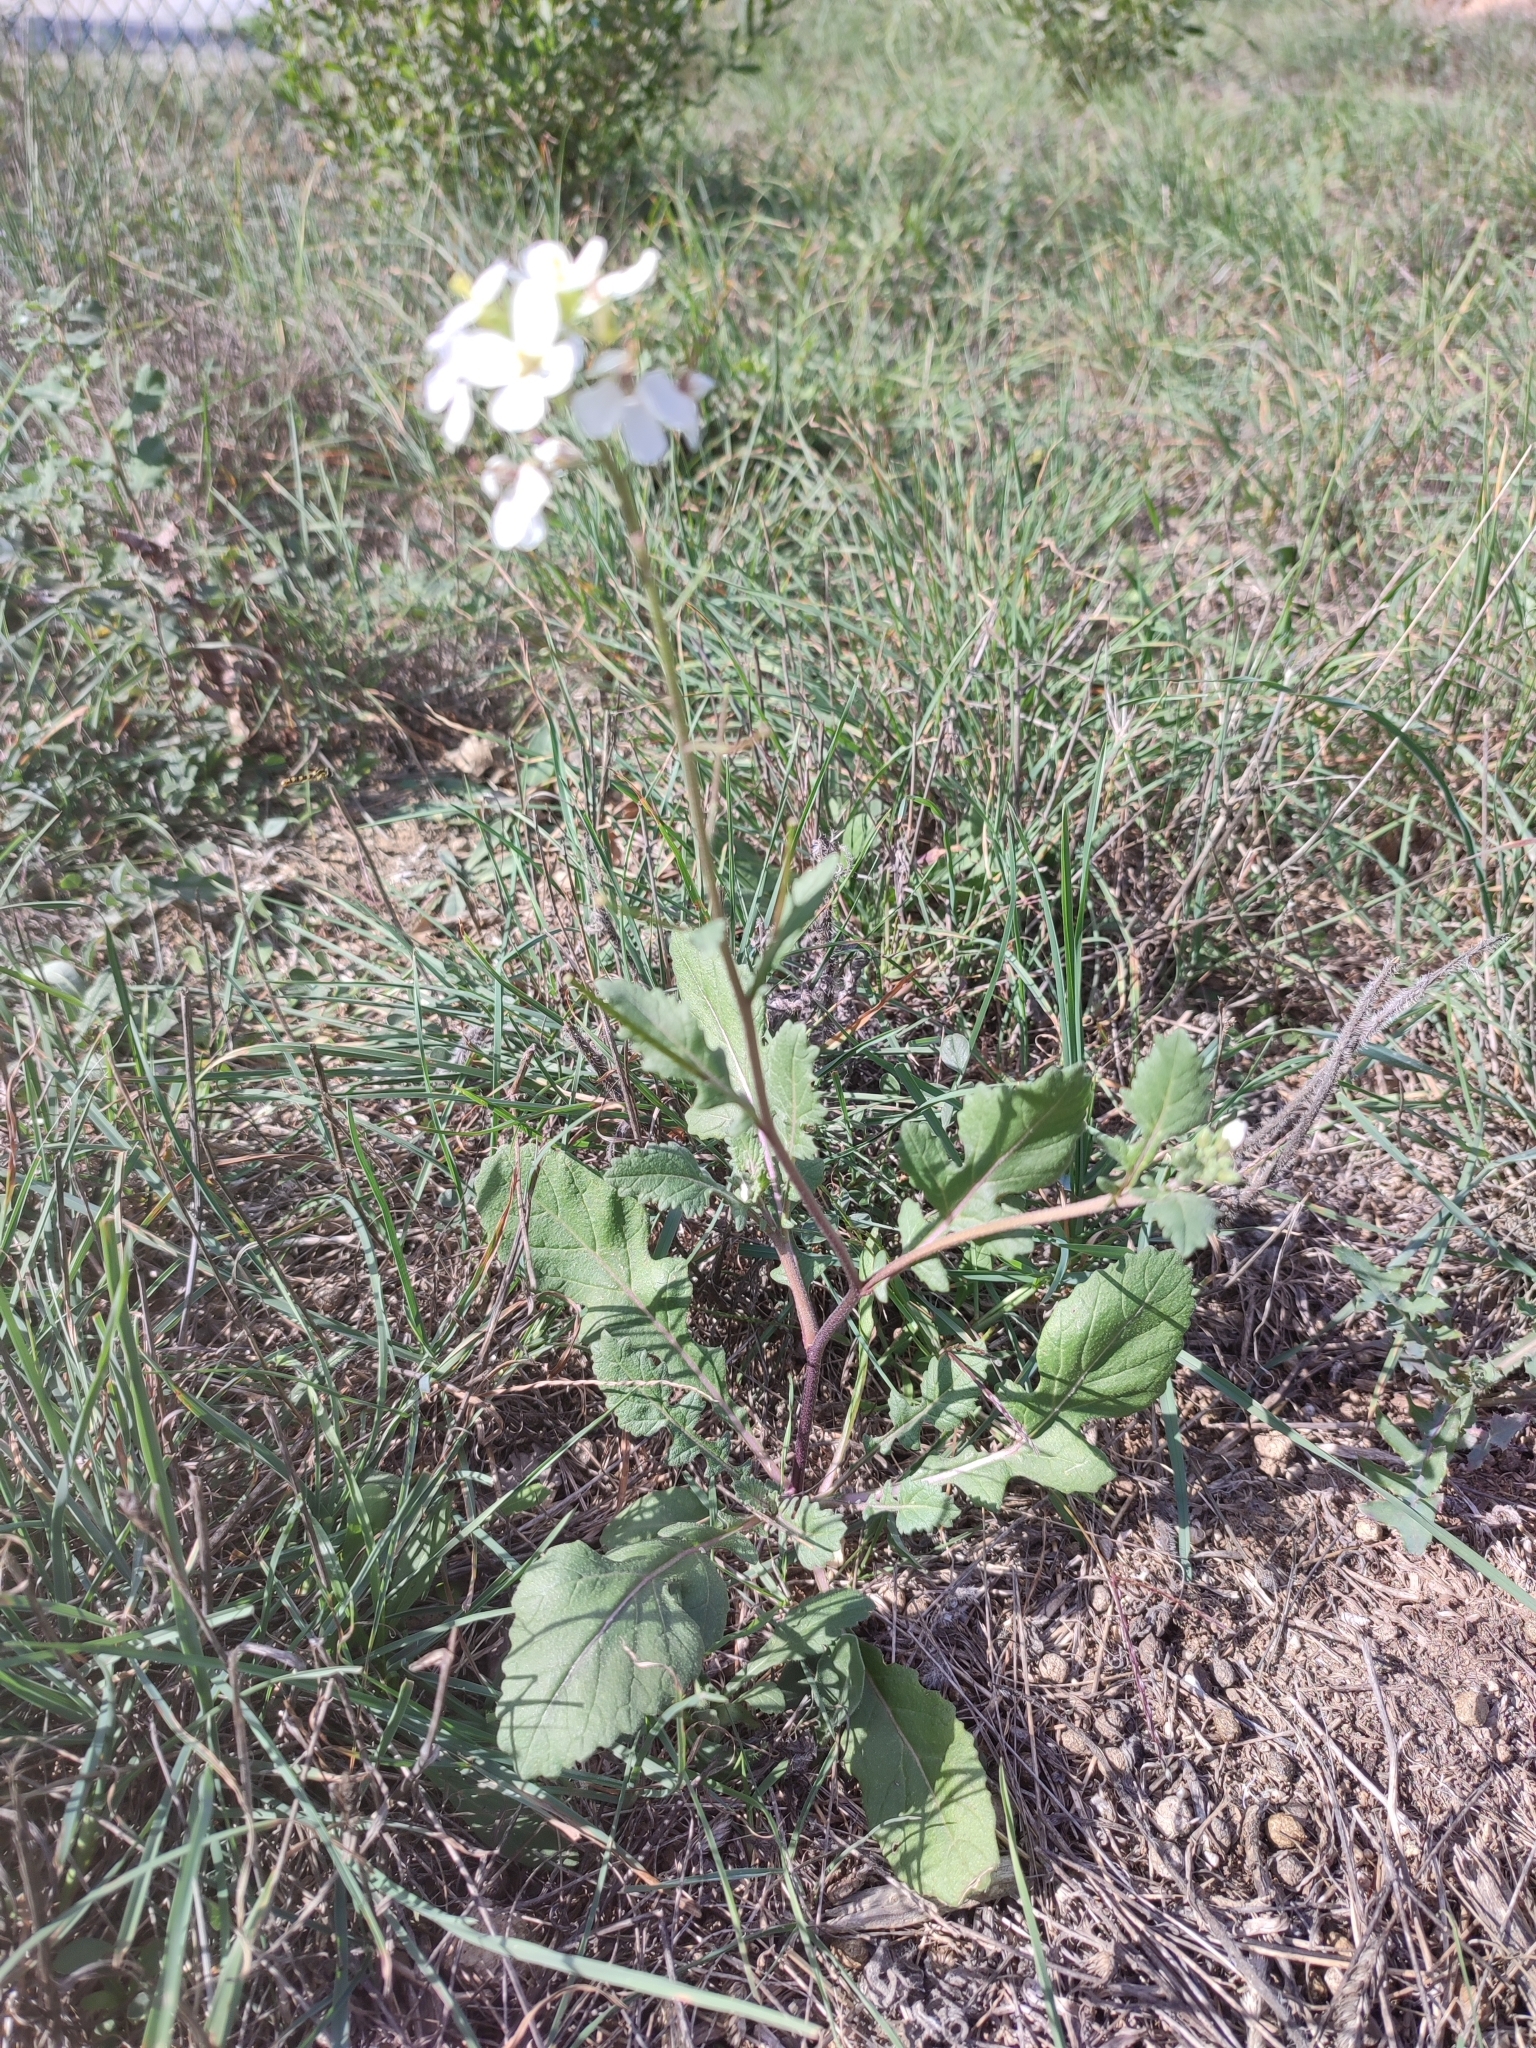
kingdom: Plantae
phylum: Tracheophyta
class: Magnoliopsida
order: Brassicales
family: Brassicaceae
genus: Diplotaxis
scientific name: Diplotaxis erucoides
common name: White rocket
